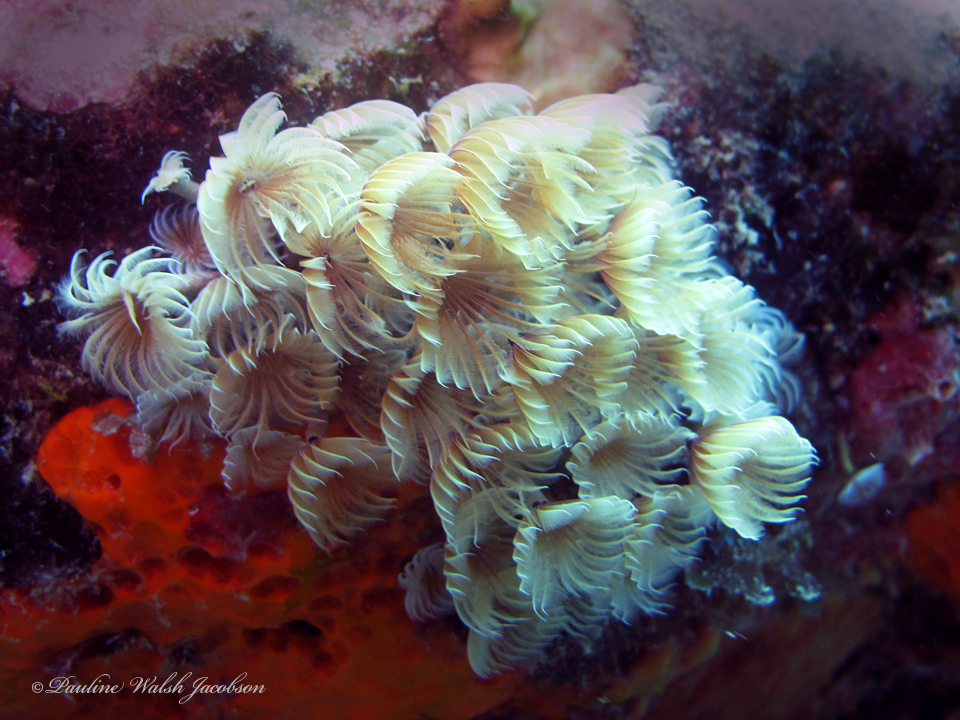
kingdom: Animalia
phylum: Annelida
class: Polychaeta
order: Sabellida
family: Sabellidae
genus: Bispira
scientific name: Bispira brunnea
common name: Social feather duster
